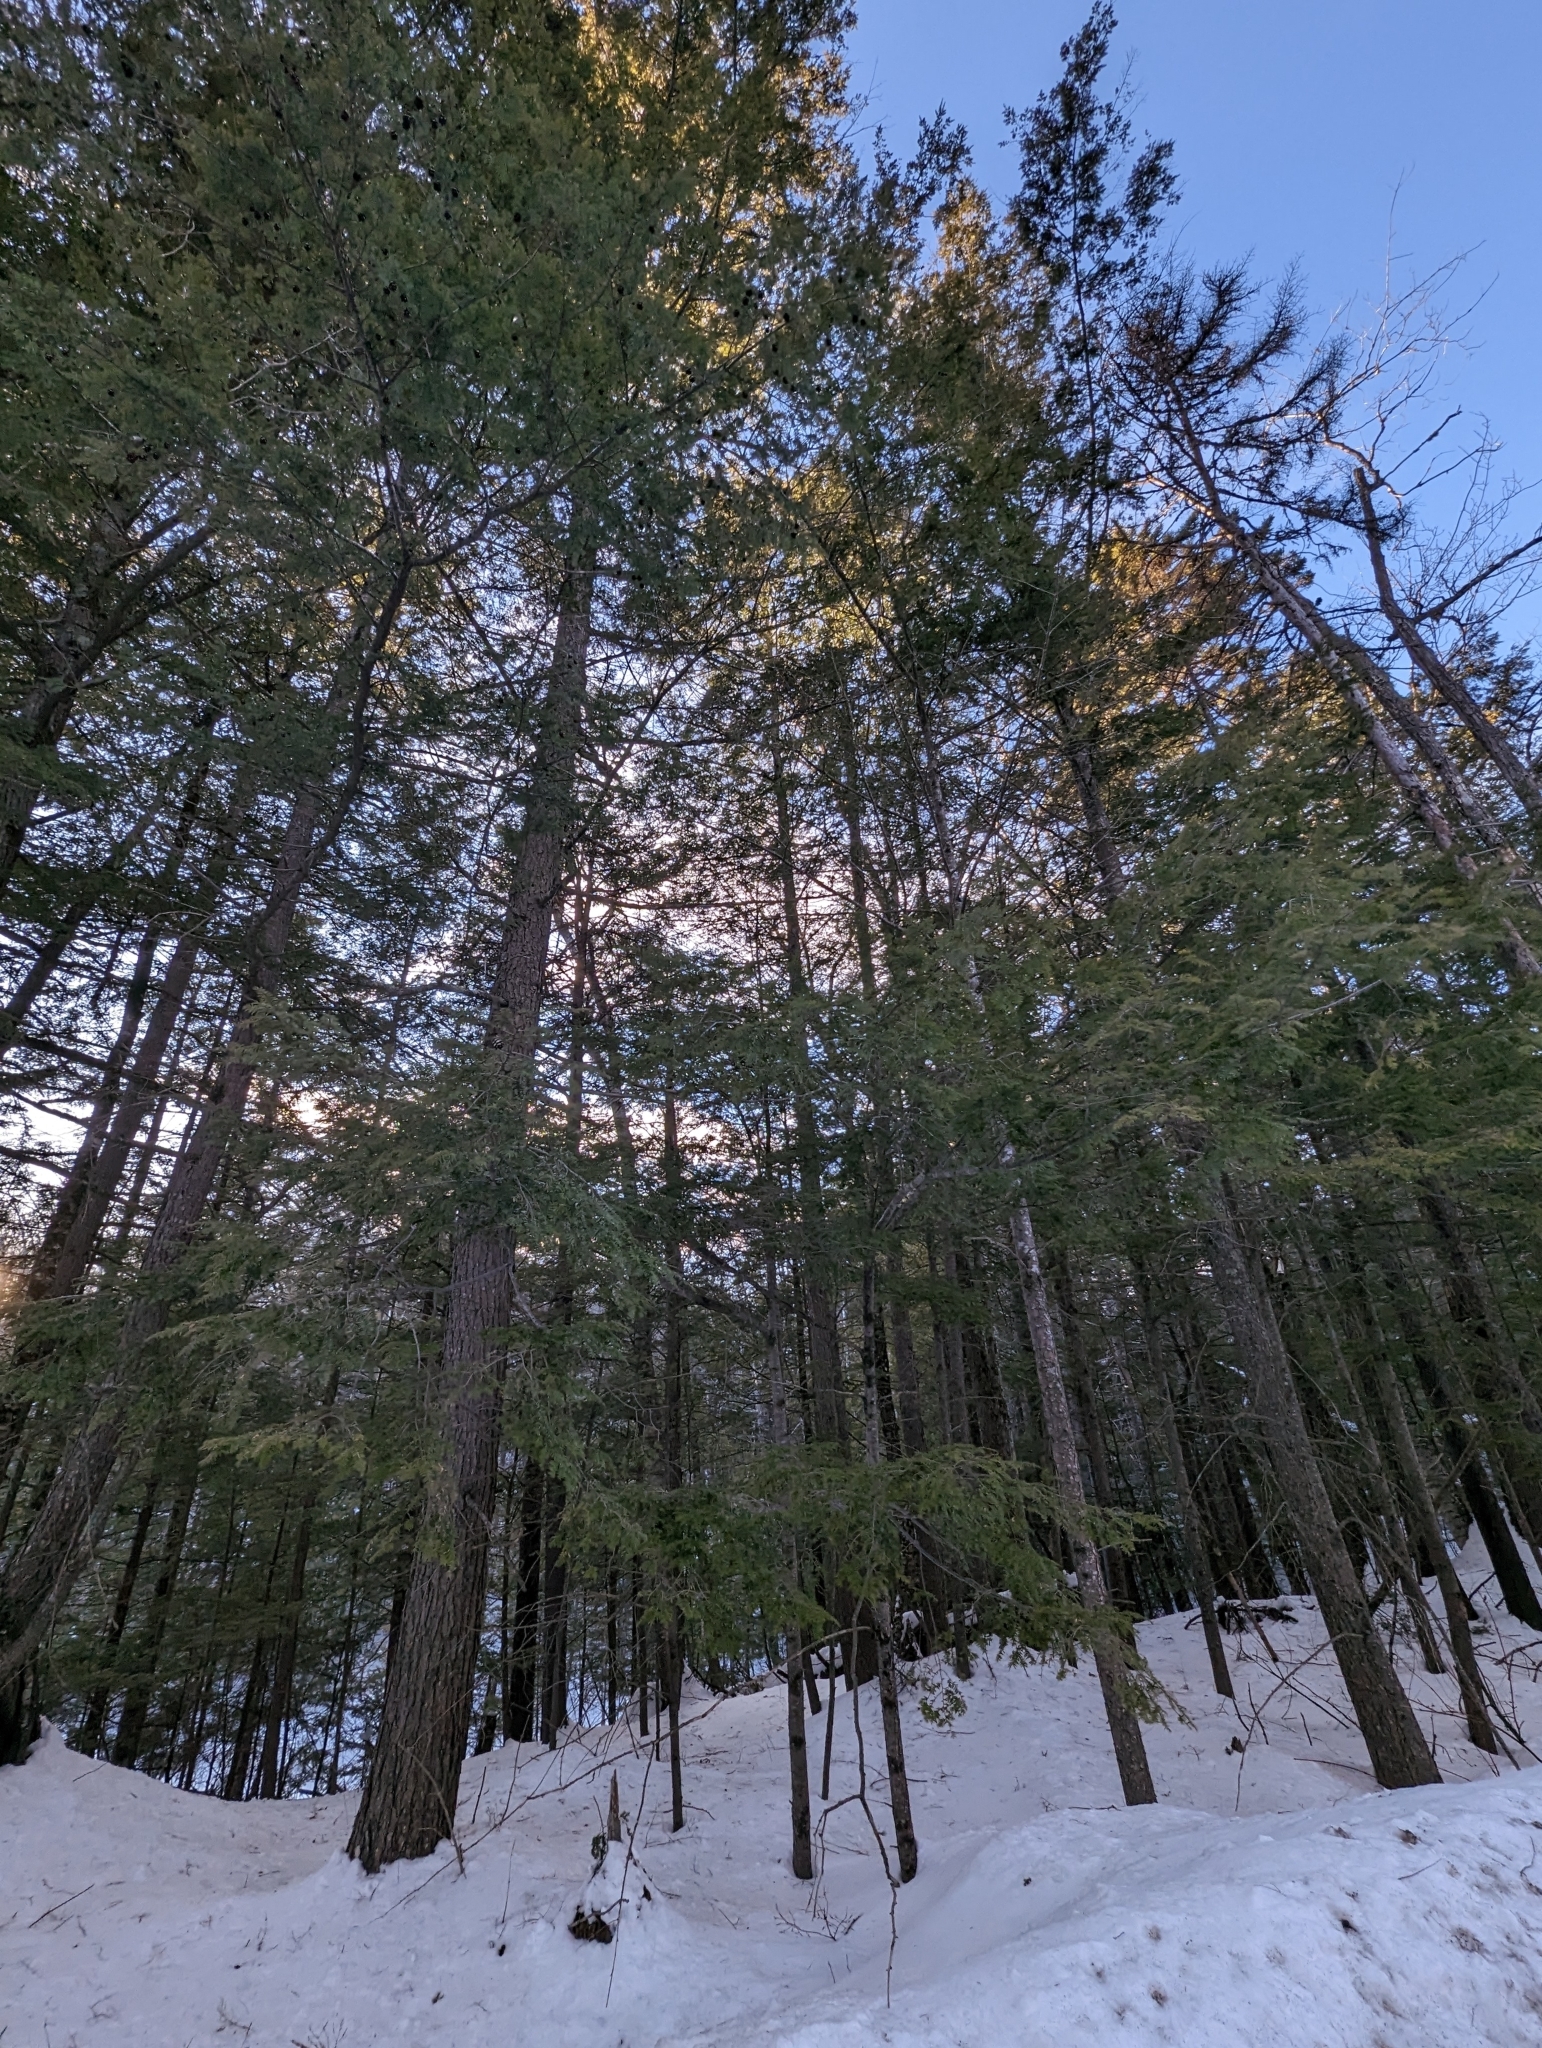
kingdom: Plantae
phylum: Tracheophyta
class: Pinopsida
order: Pinales
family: Pinaceae
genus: Tsuga
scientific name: Tsuga canadensis
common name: Eastern hemlock
